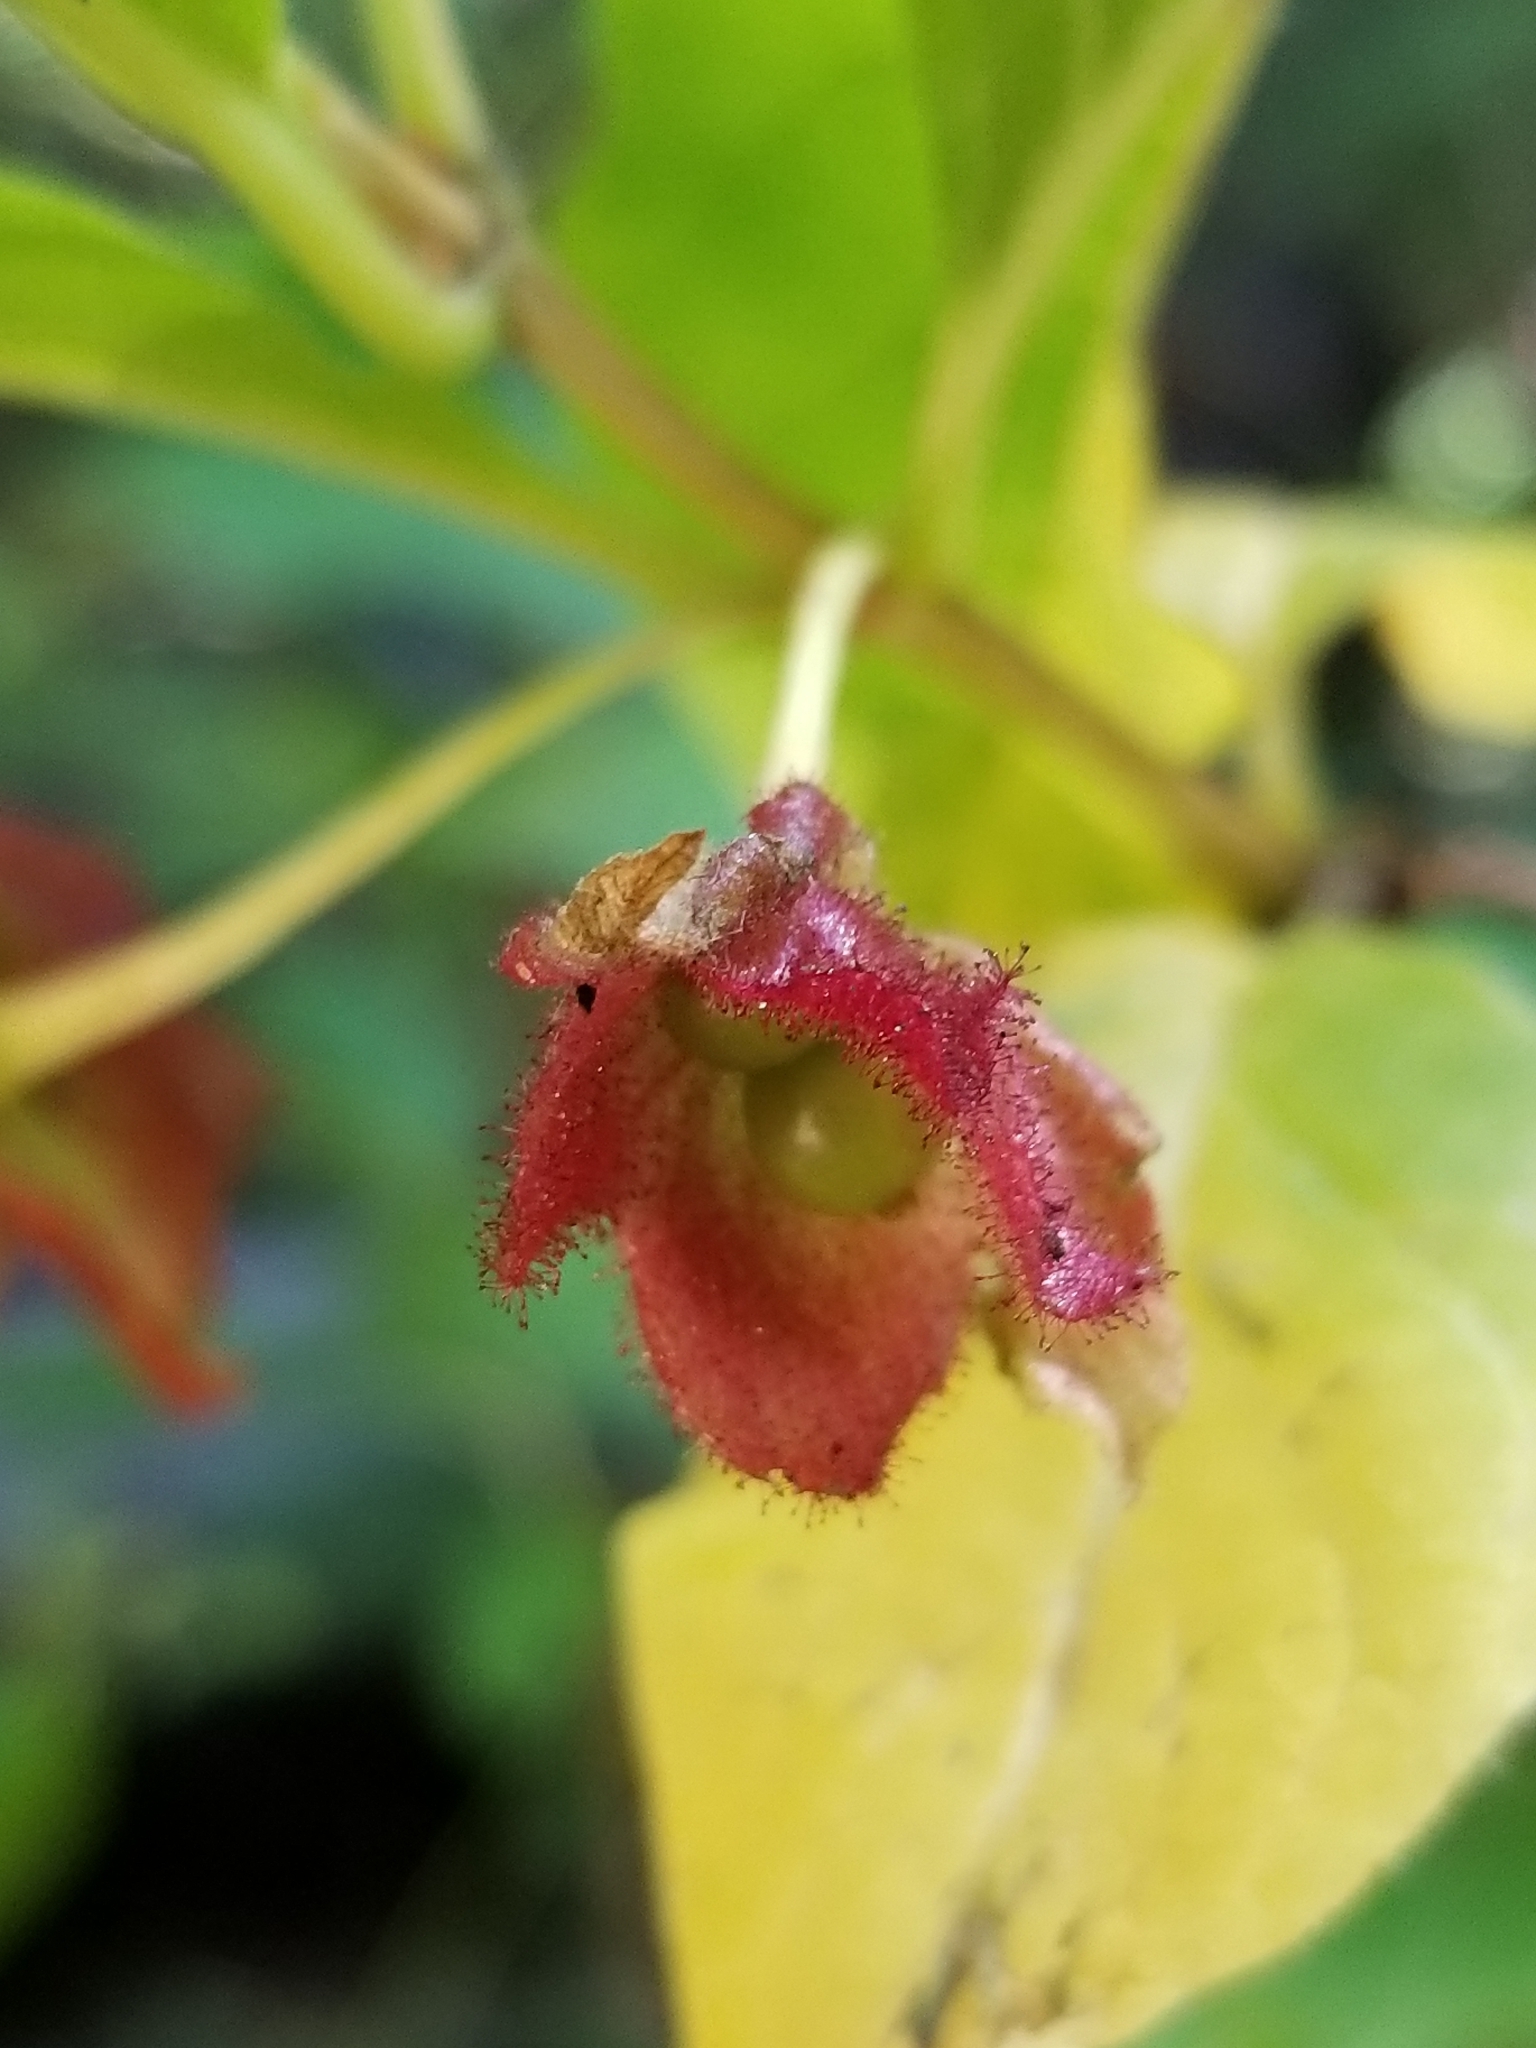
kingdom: Plantae
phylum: Tracheophyta
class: Magnoliopsida
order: Dipsacales
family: Caprifoliaceae
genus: Lonicera
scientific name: Lonicera involucrata
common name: Californian honeysuckle
